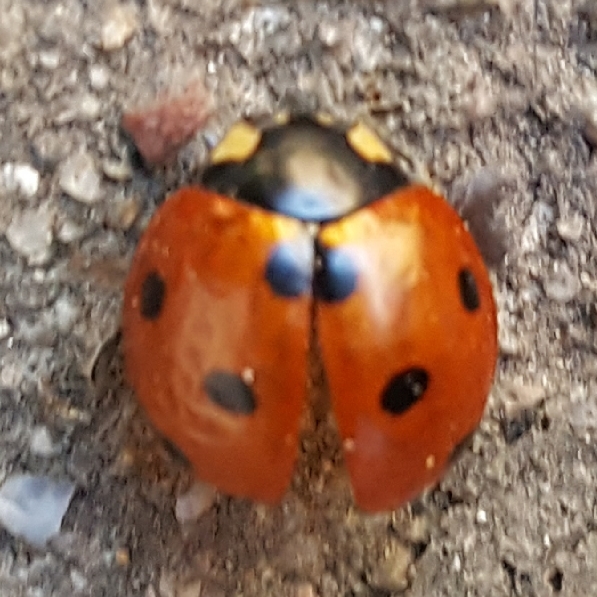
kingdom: Animalia
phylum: Arthropoda
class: Insecta
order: Coleoptera
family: Coccinellidae
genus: Coccinella
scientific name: Coccinella septempunctata
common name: Sevenspotted lady beetle
